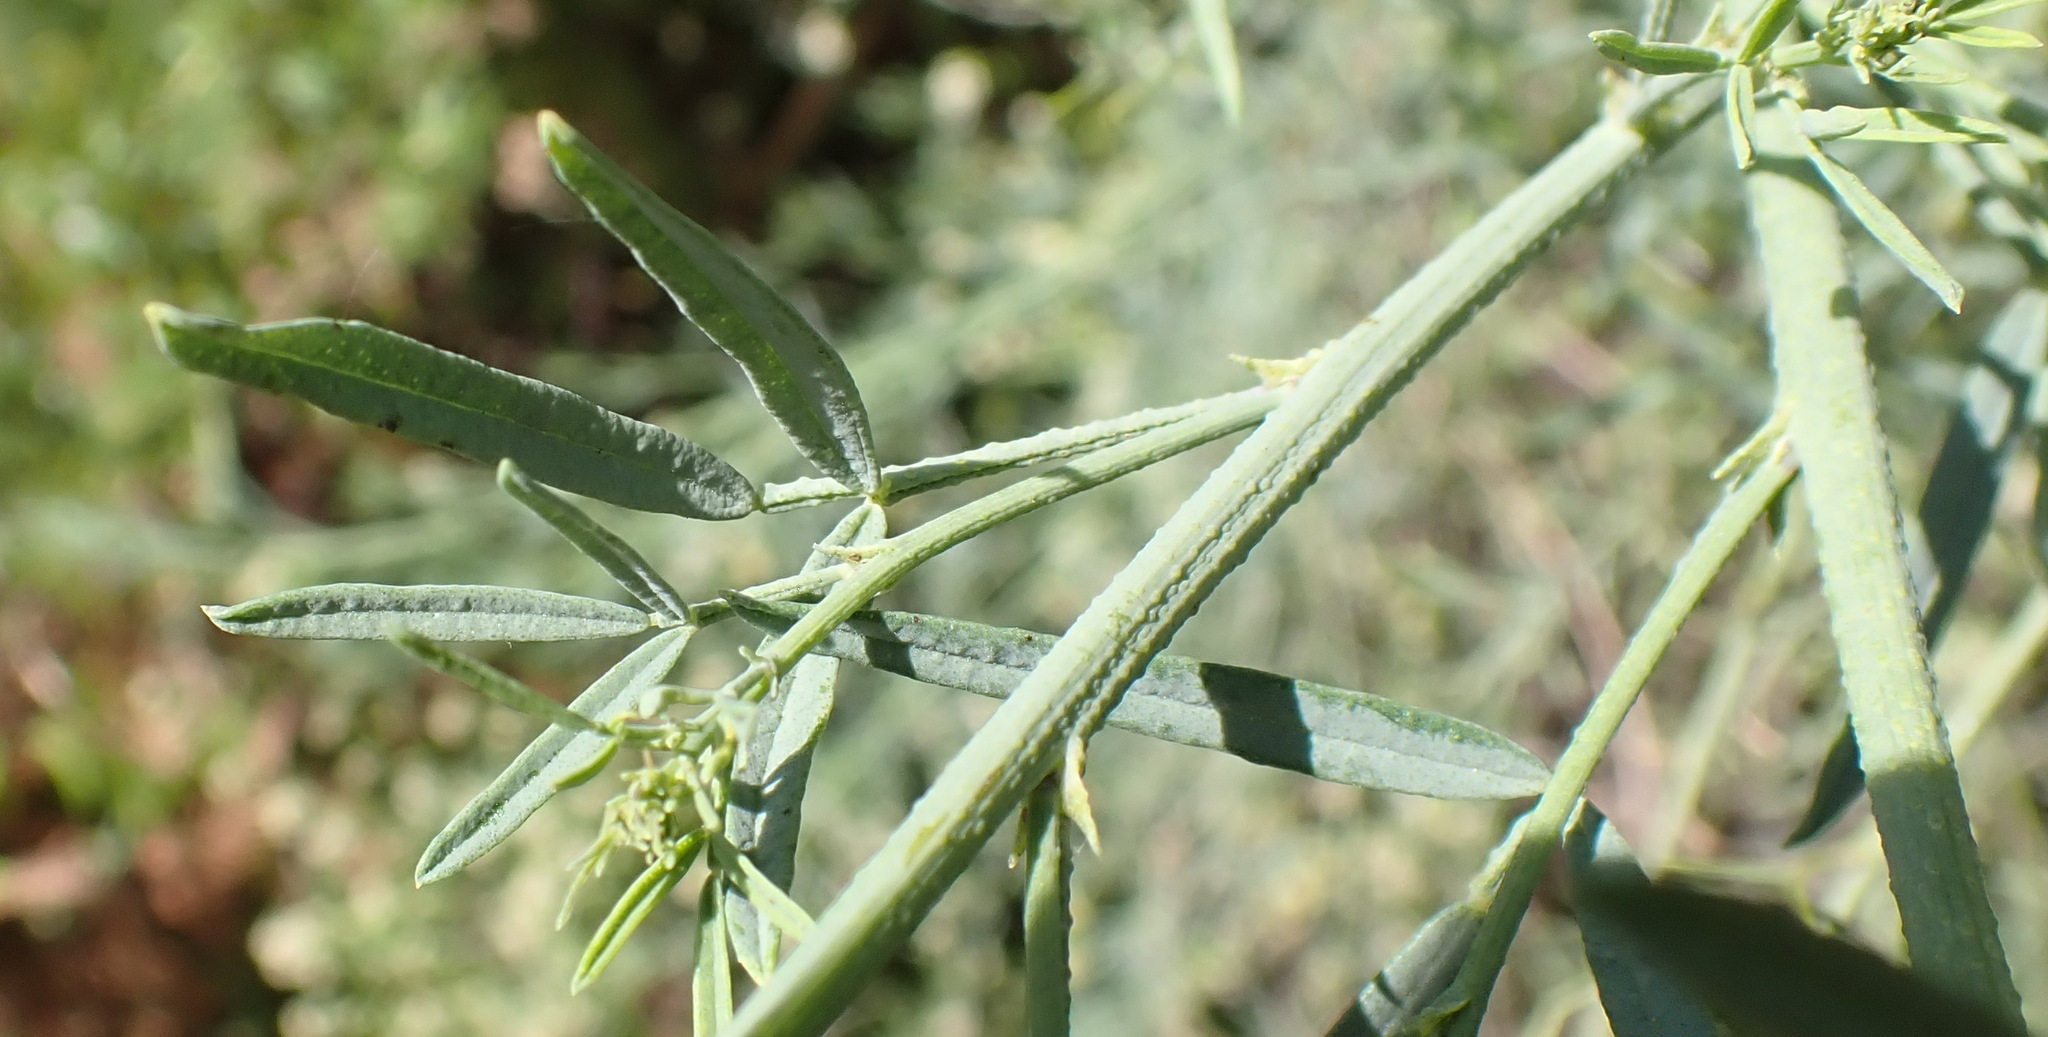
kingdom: Plantae
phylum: Tracheophyta
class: Magnoliopsida
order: Fabales
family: Fabaceae
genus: Psoralea
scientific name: Psoralea axillaris
